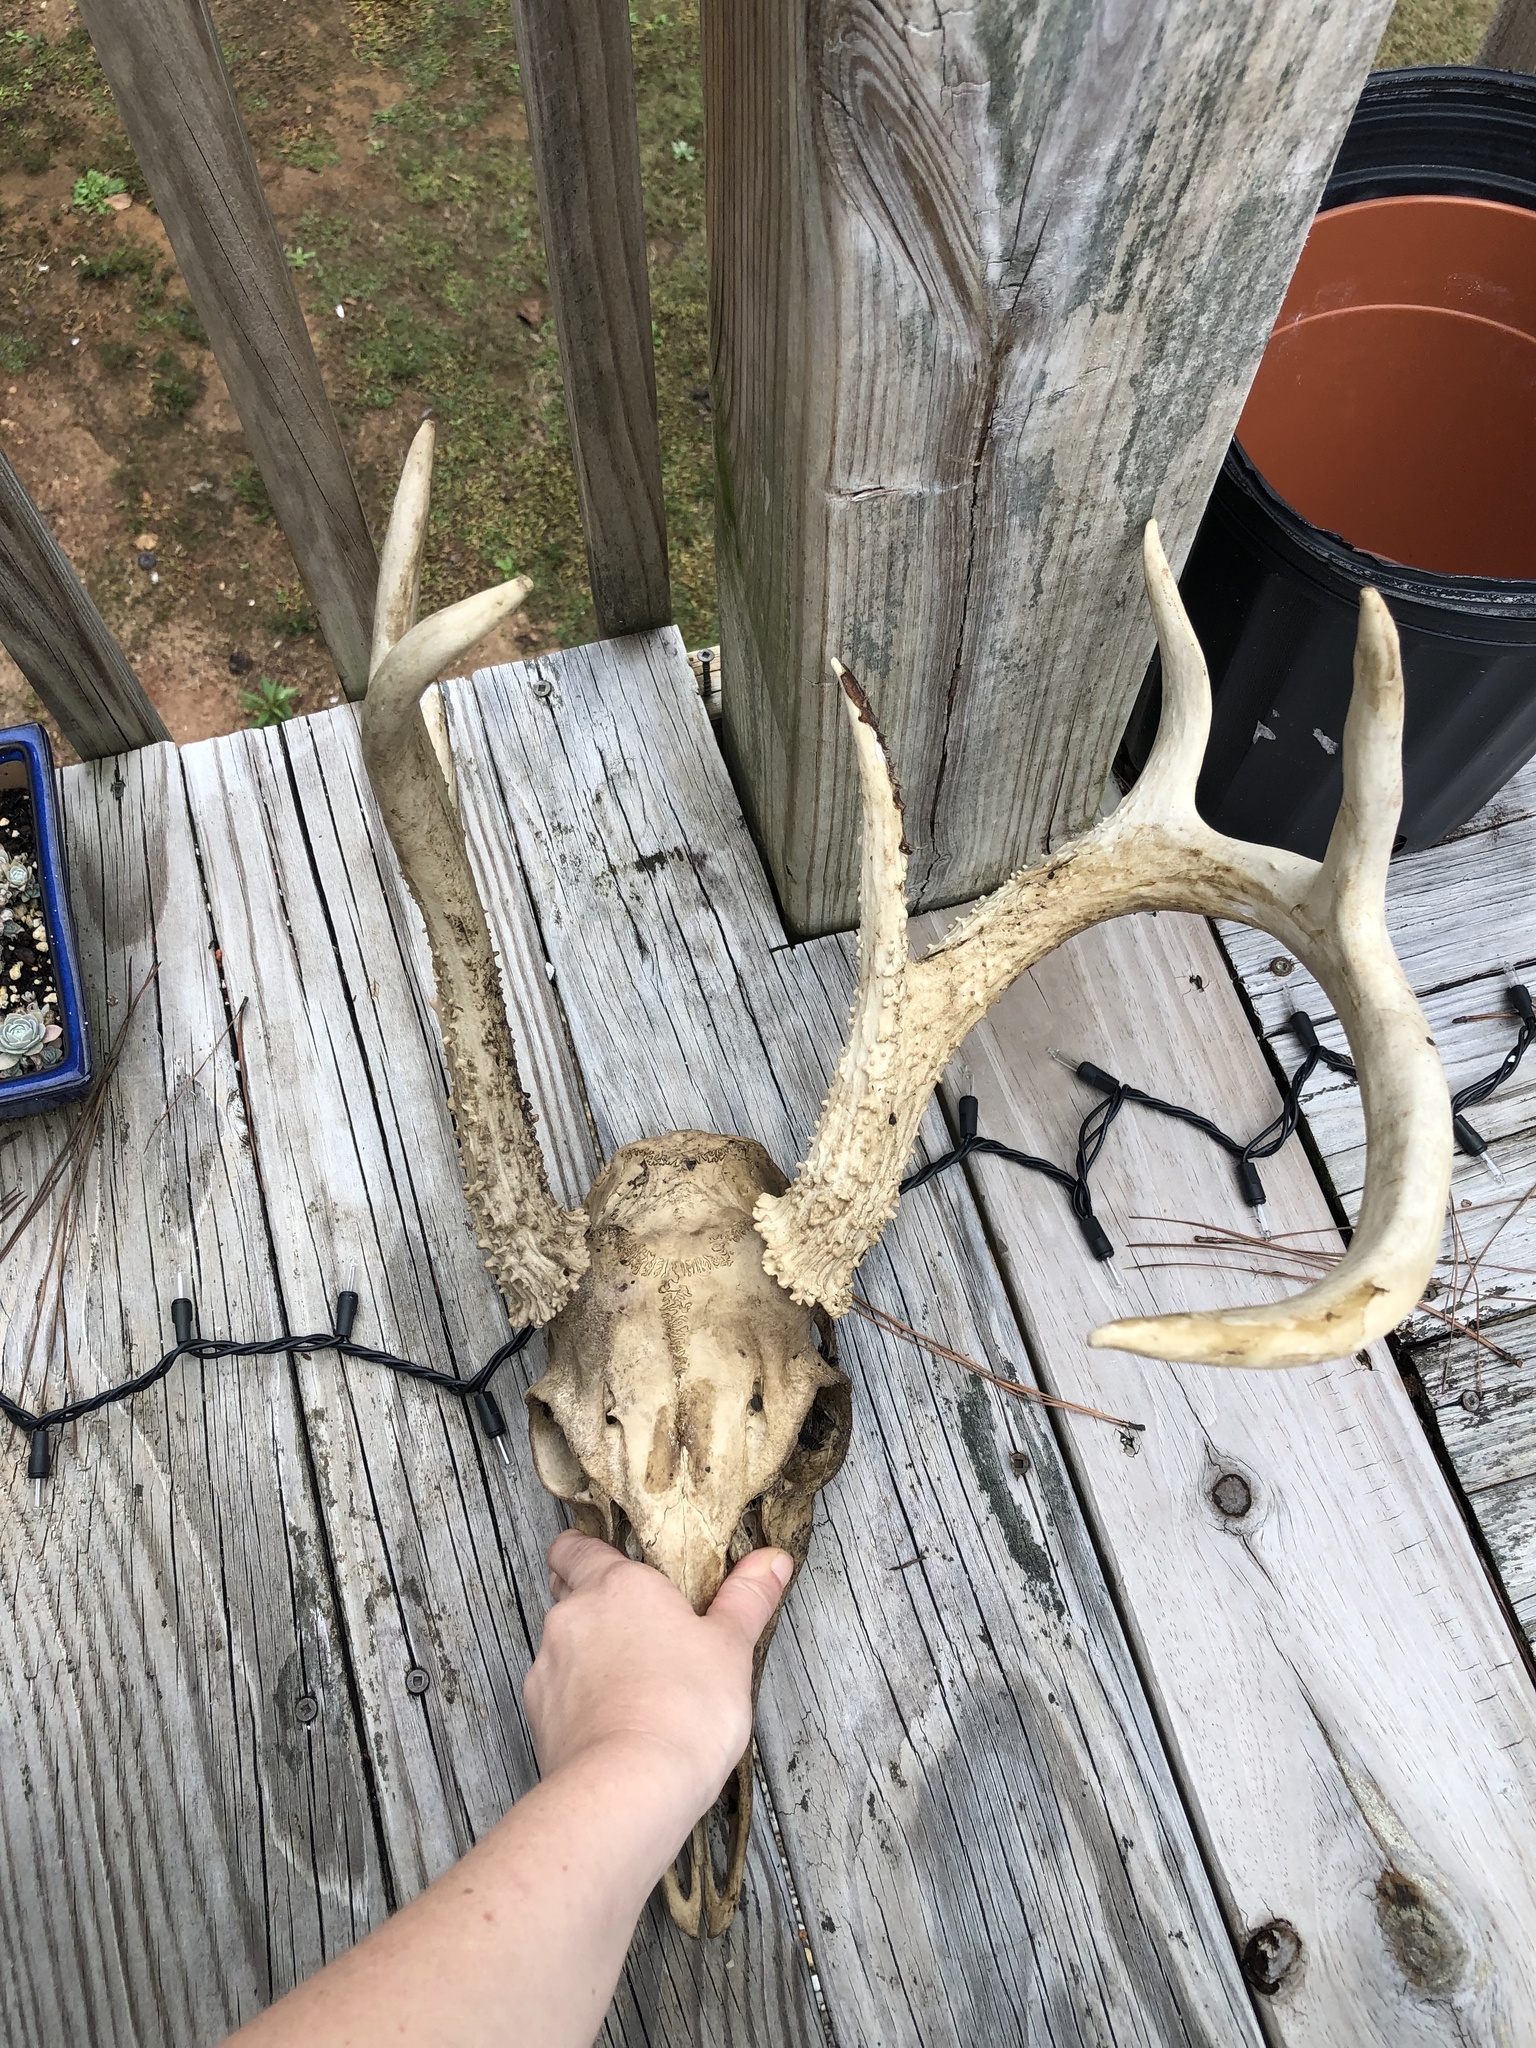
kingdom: Animalia
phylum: Chordata
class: Mammalia
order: Artiodactyla
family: Cervidae
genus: Odocoileus
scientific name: Odocoileus virginianus
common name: White-tailed deer
